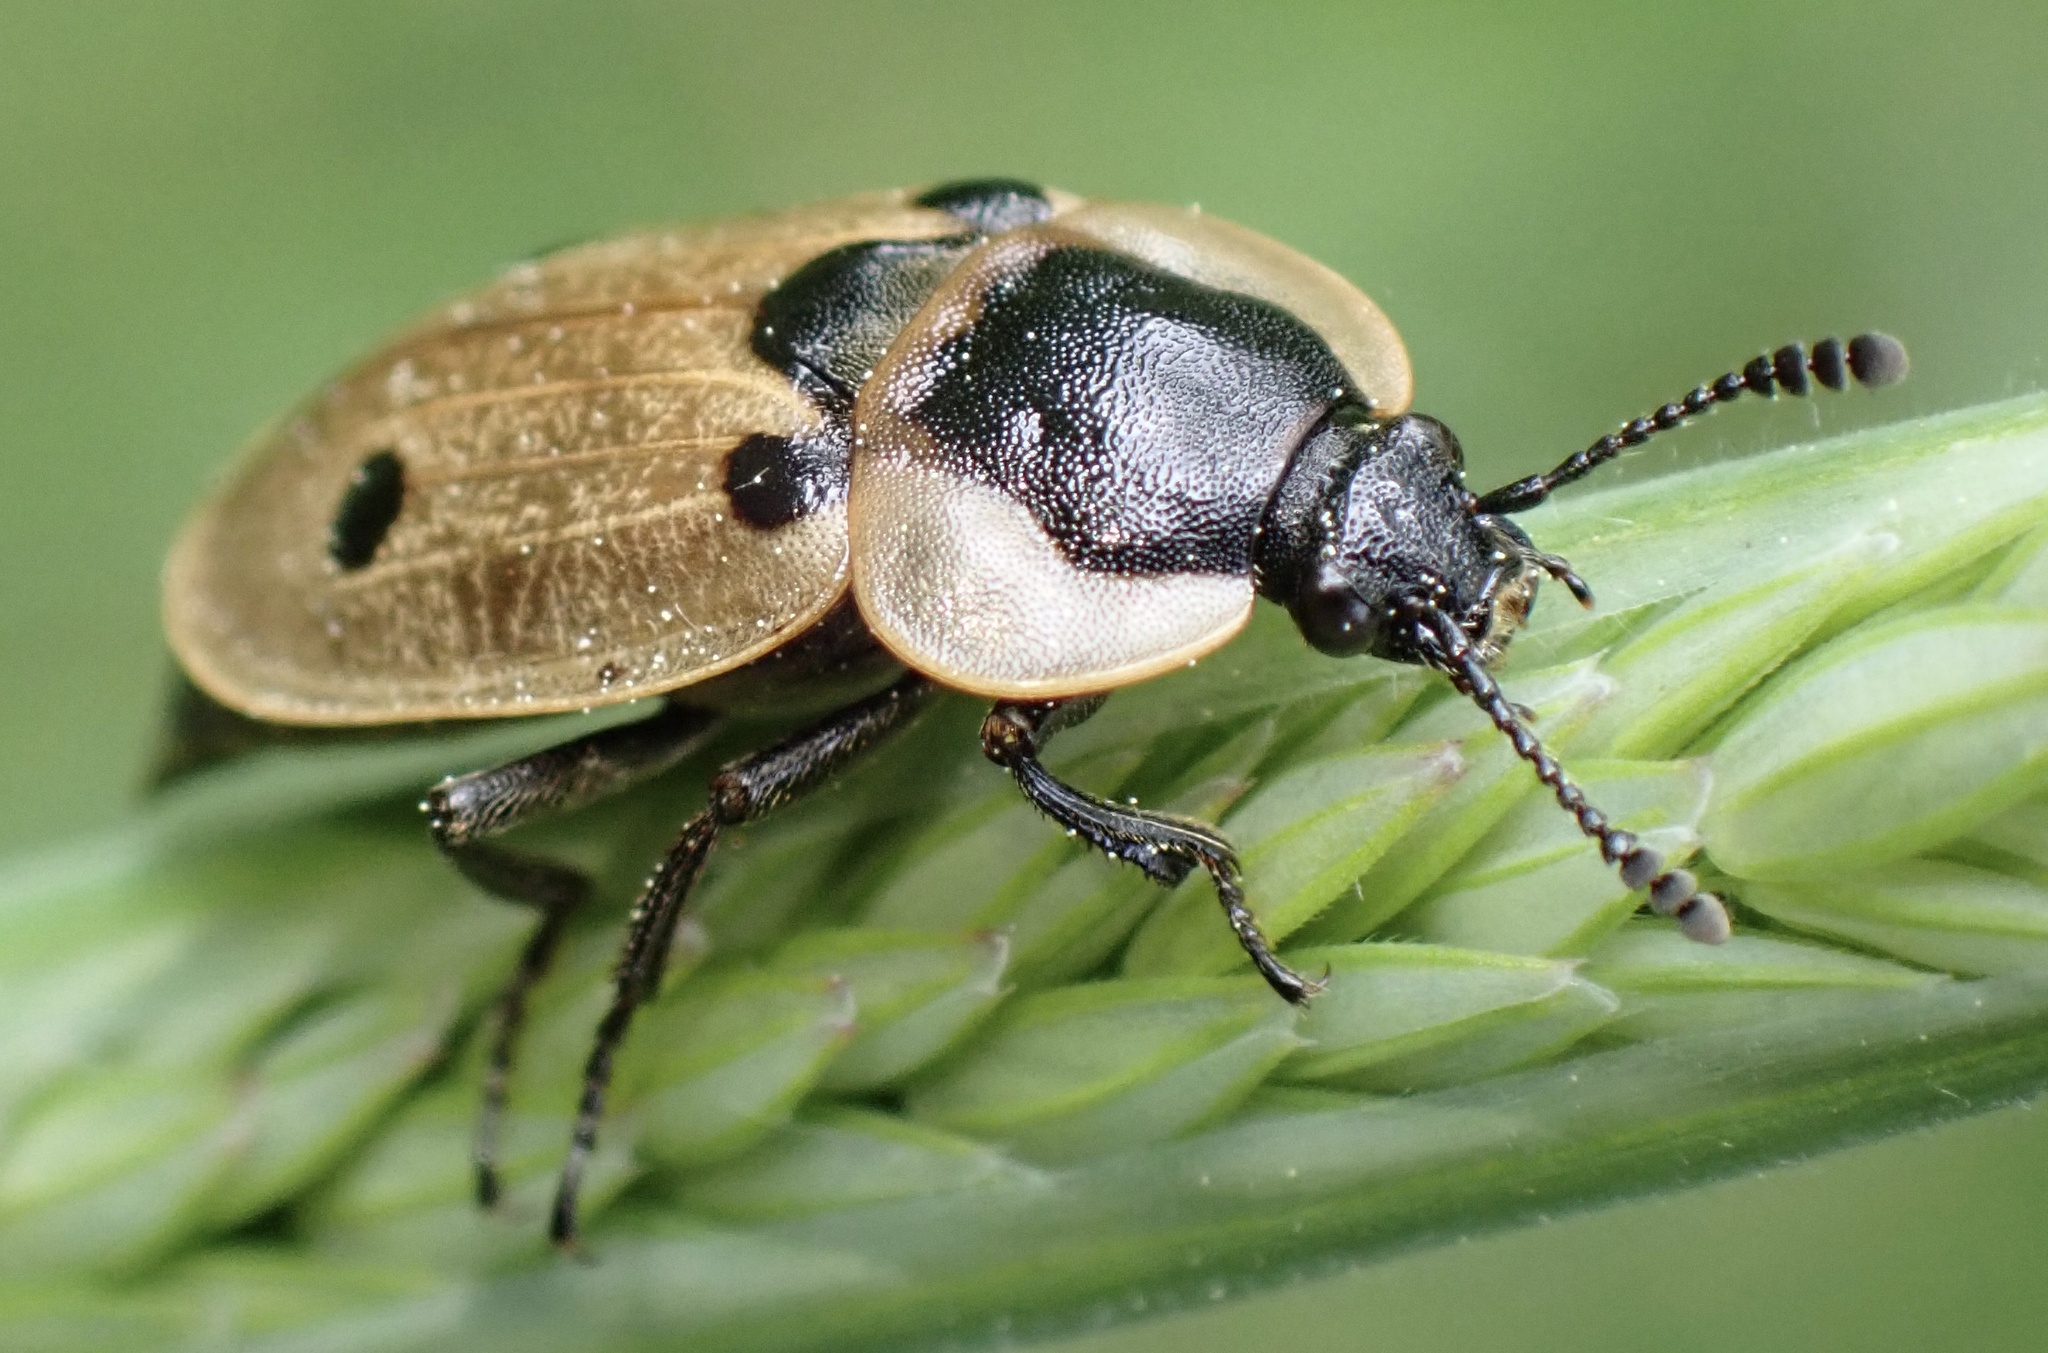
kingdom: Animalia
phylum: Arthropoda
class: Insecta
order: Coleoptera
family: Staphylinidae
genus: Dendroxena
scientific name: Dendroxena quadrimaculata
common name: Carrion beetle
